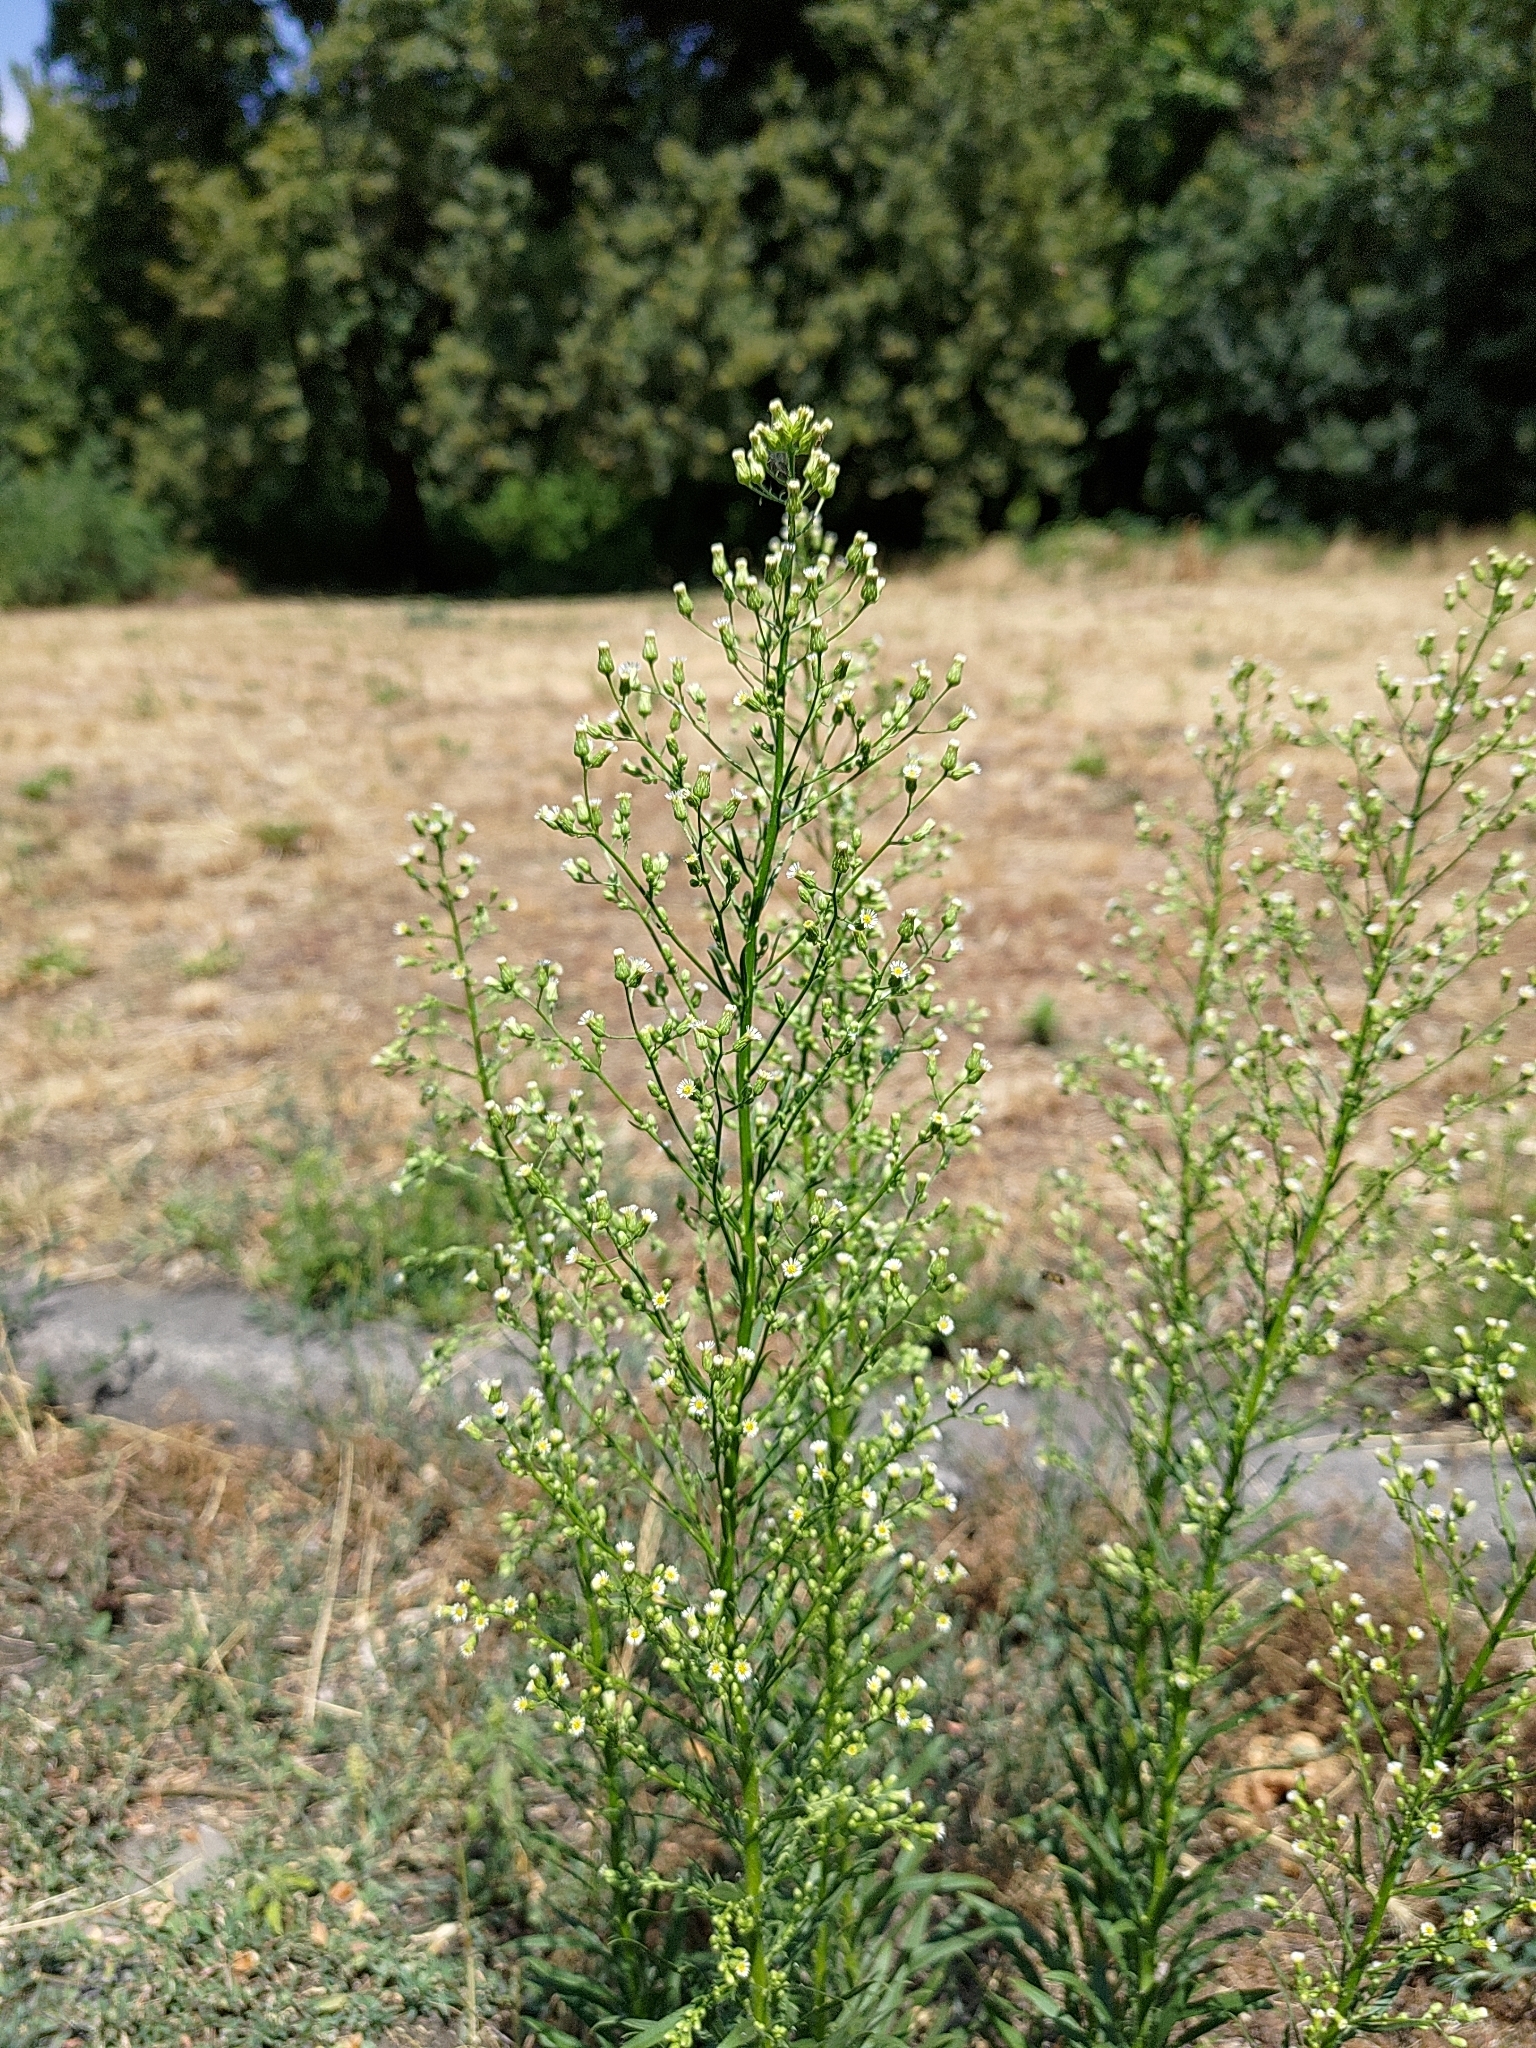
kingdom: Plantae
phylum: Tracheophyta
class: Magnoliopsida
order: Asterales
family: Asteraceae
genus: Erigeron
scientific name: Erigeron canadensis
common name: Canadian fleabane
